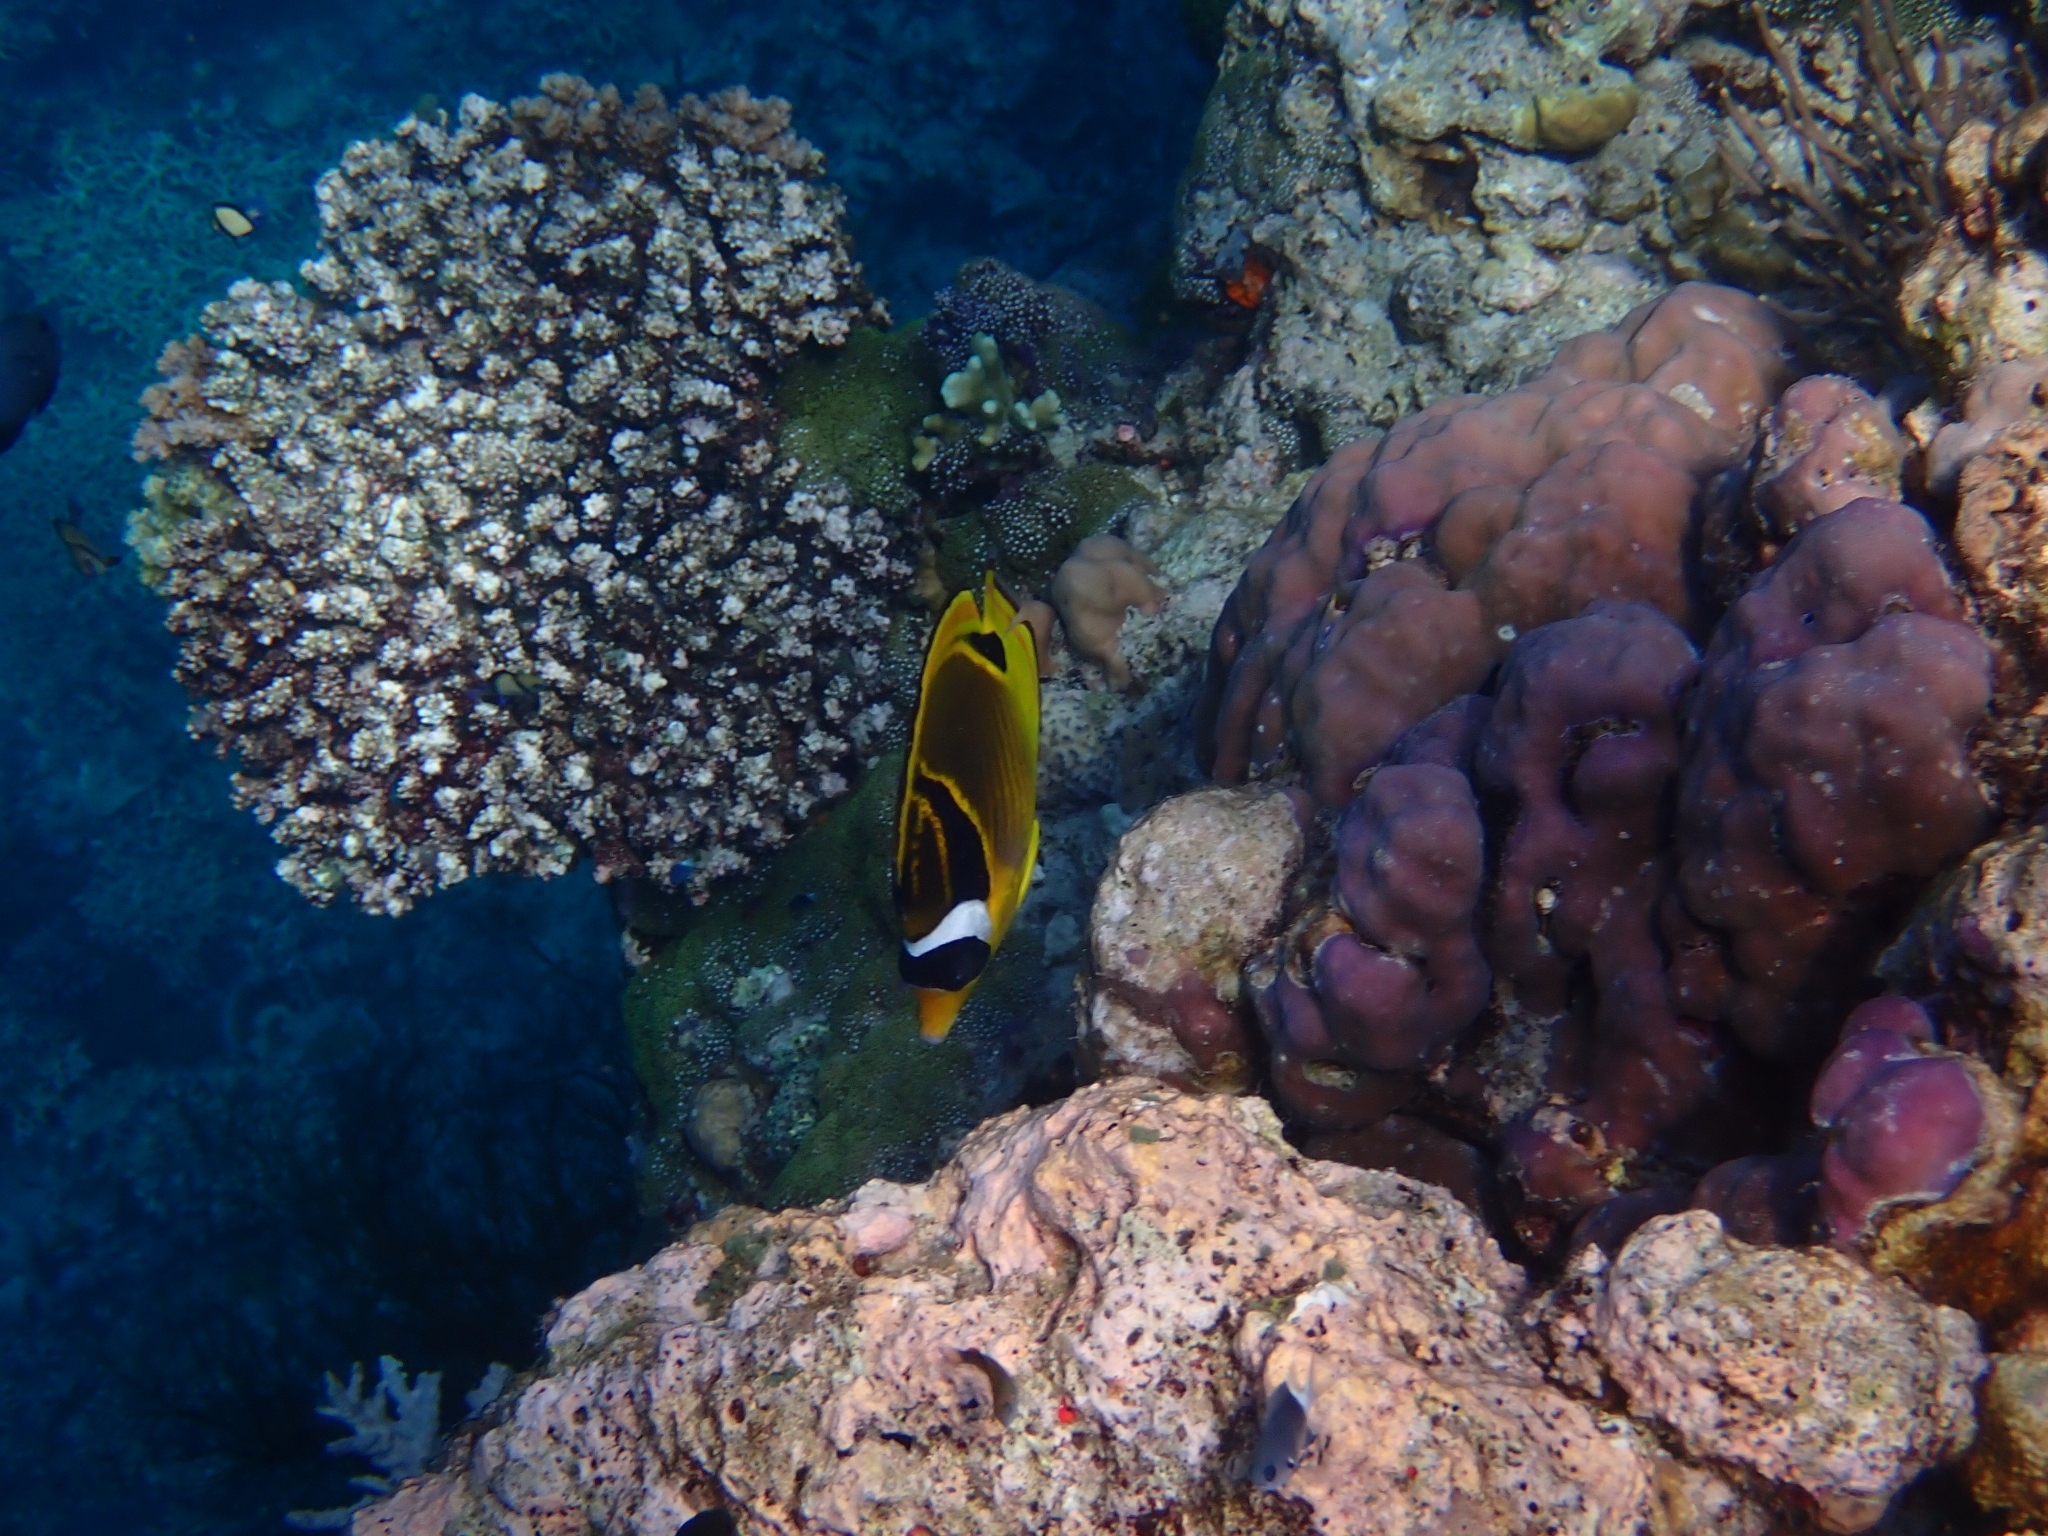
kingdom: Animalia
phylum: Chordata
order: Perciformes
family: Chaetodontidae
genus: Chaetodon
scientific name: Chaetodon lunula
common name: Raccoon butterflyfish
